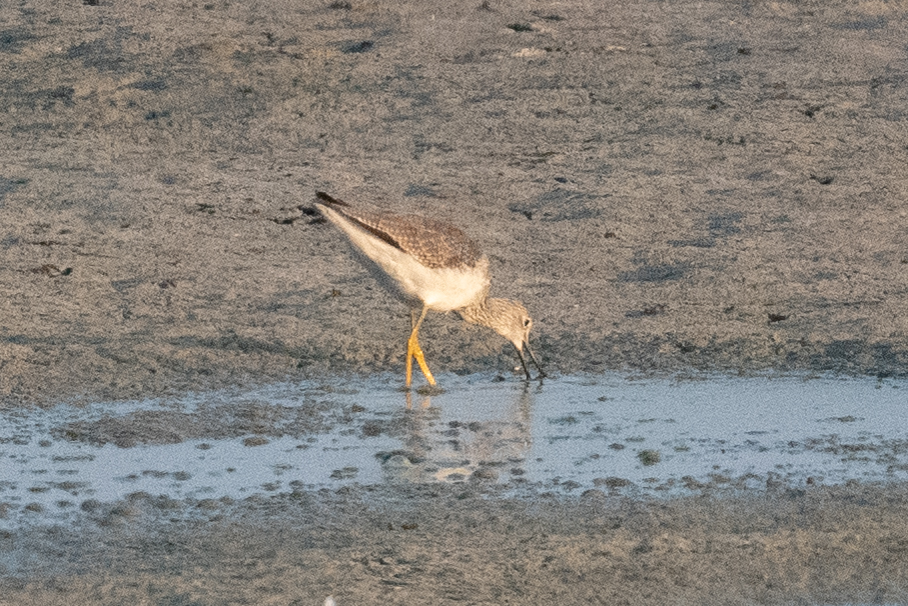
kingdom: Animalia
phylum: Chordata
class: Aves
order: Charadriiformes
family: Scolopacidae
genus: Tringa
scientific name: Tringa melanoleuca
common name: Greater yellowlegs
